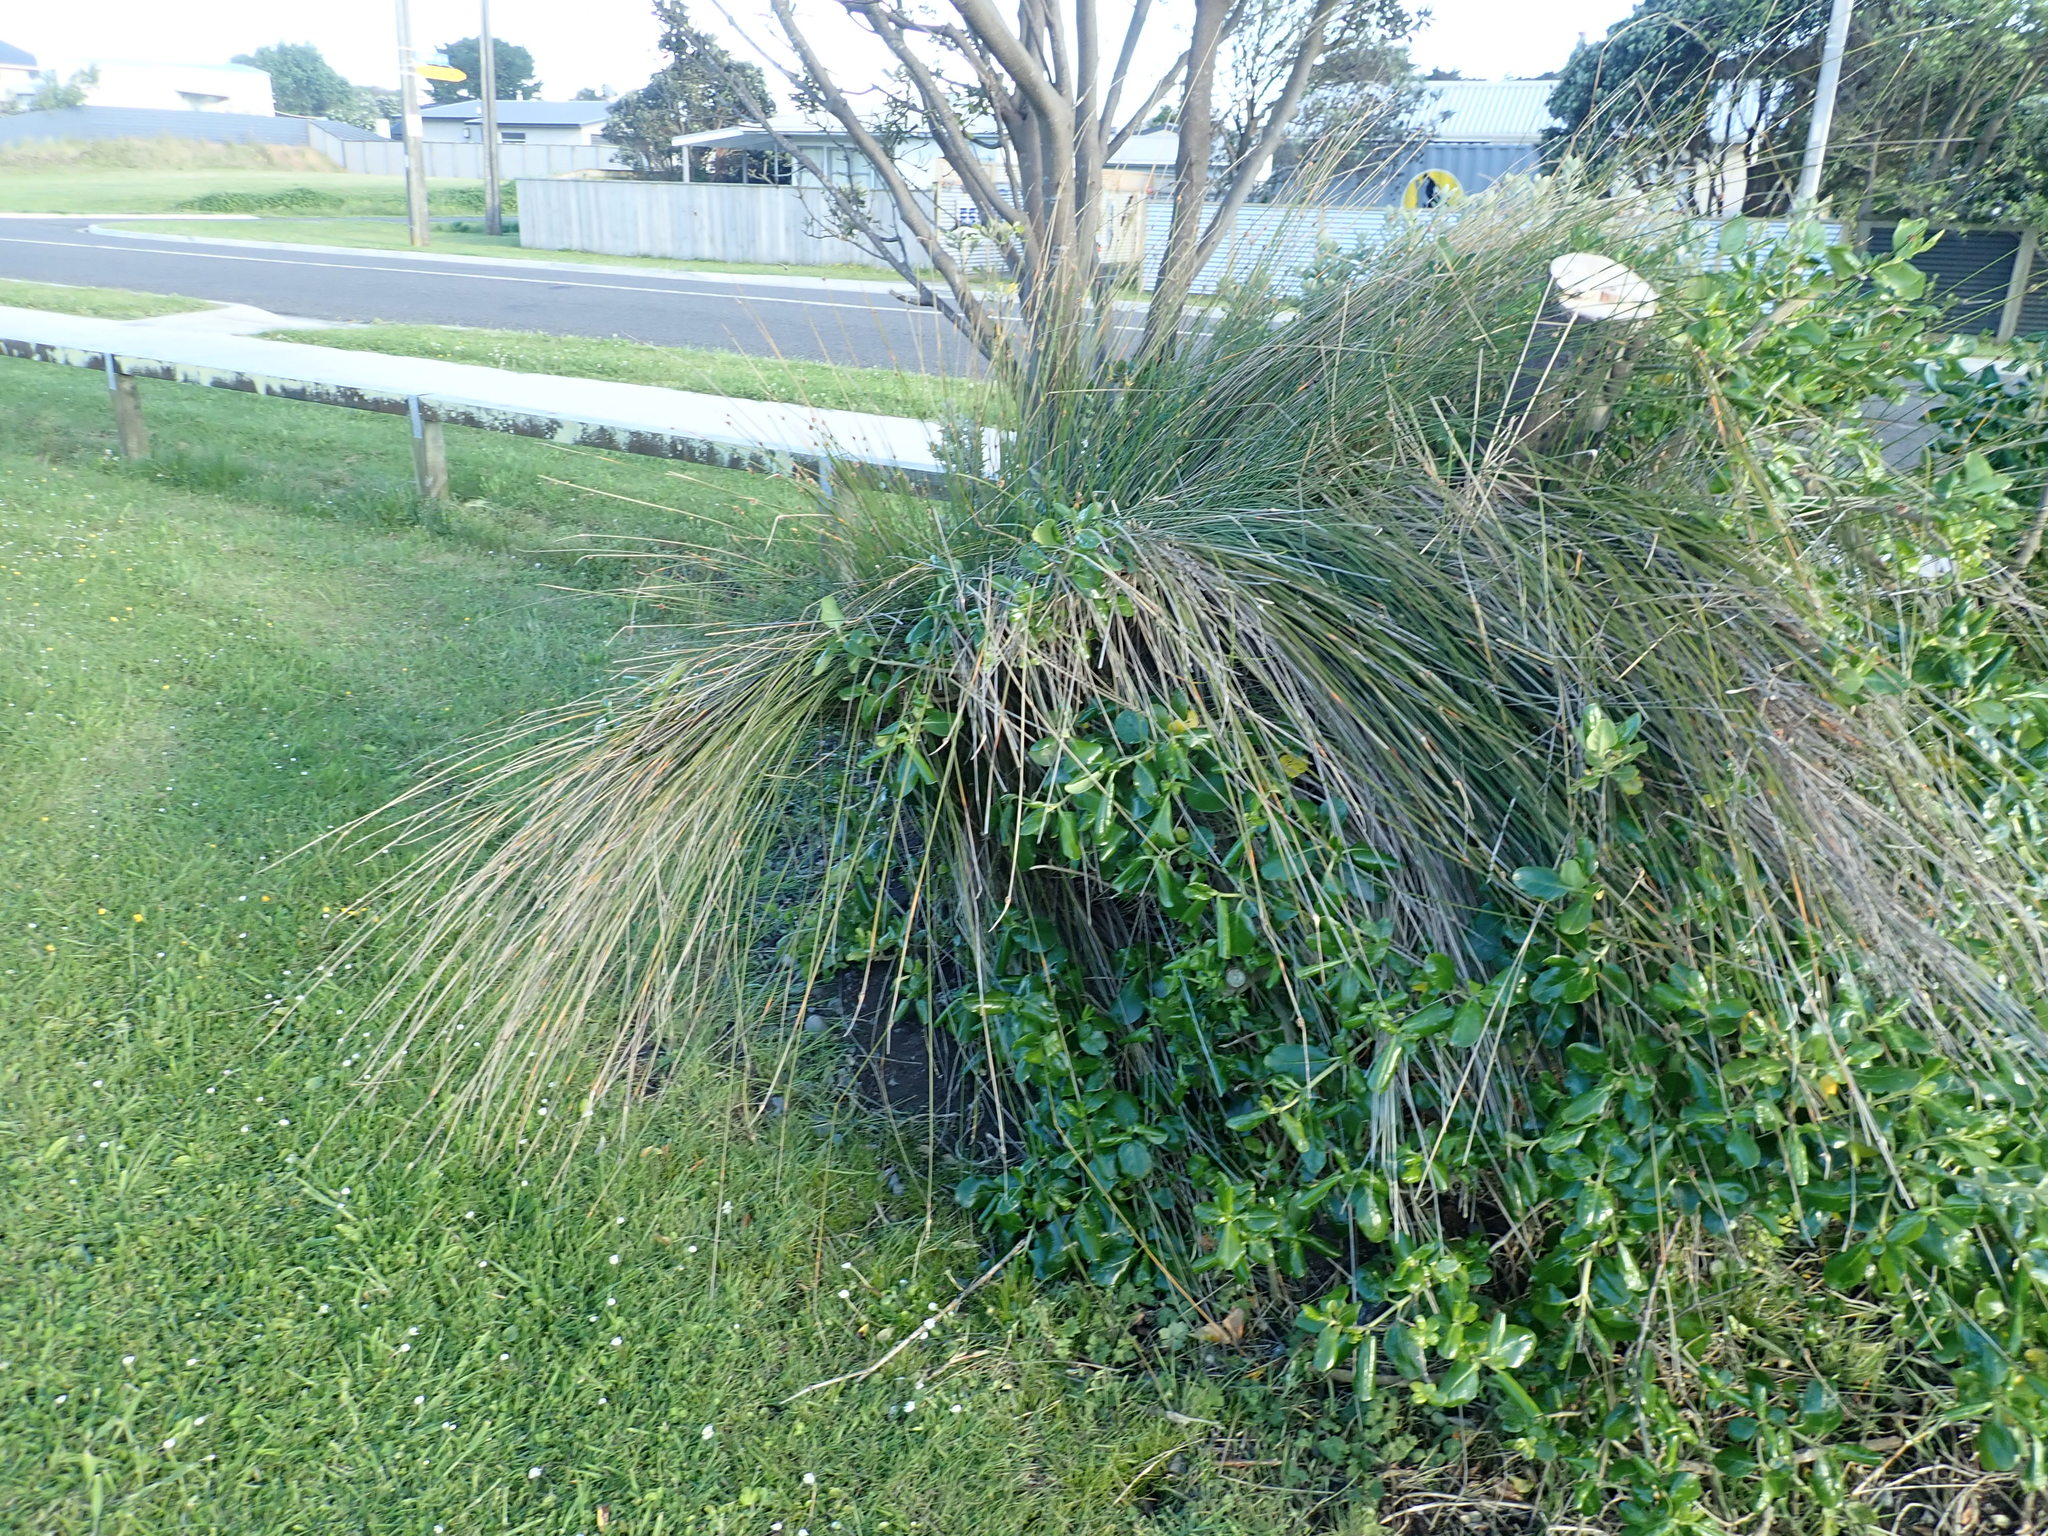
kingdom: Plantae
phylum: Tracheophyta
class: Liliopsida
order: Poales
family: Cyperaceae
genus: Ficinia
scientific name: Ficinia nodosa
